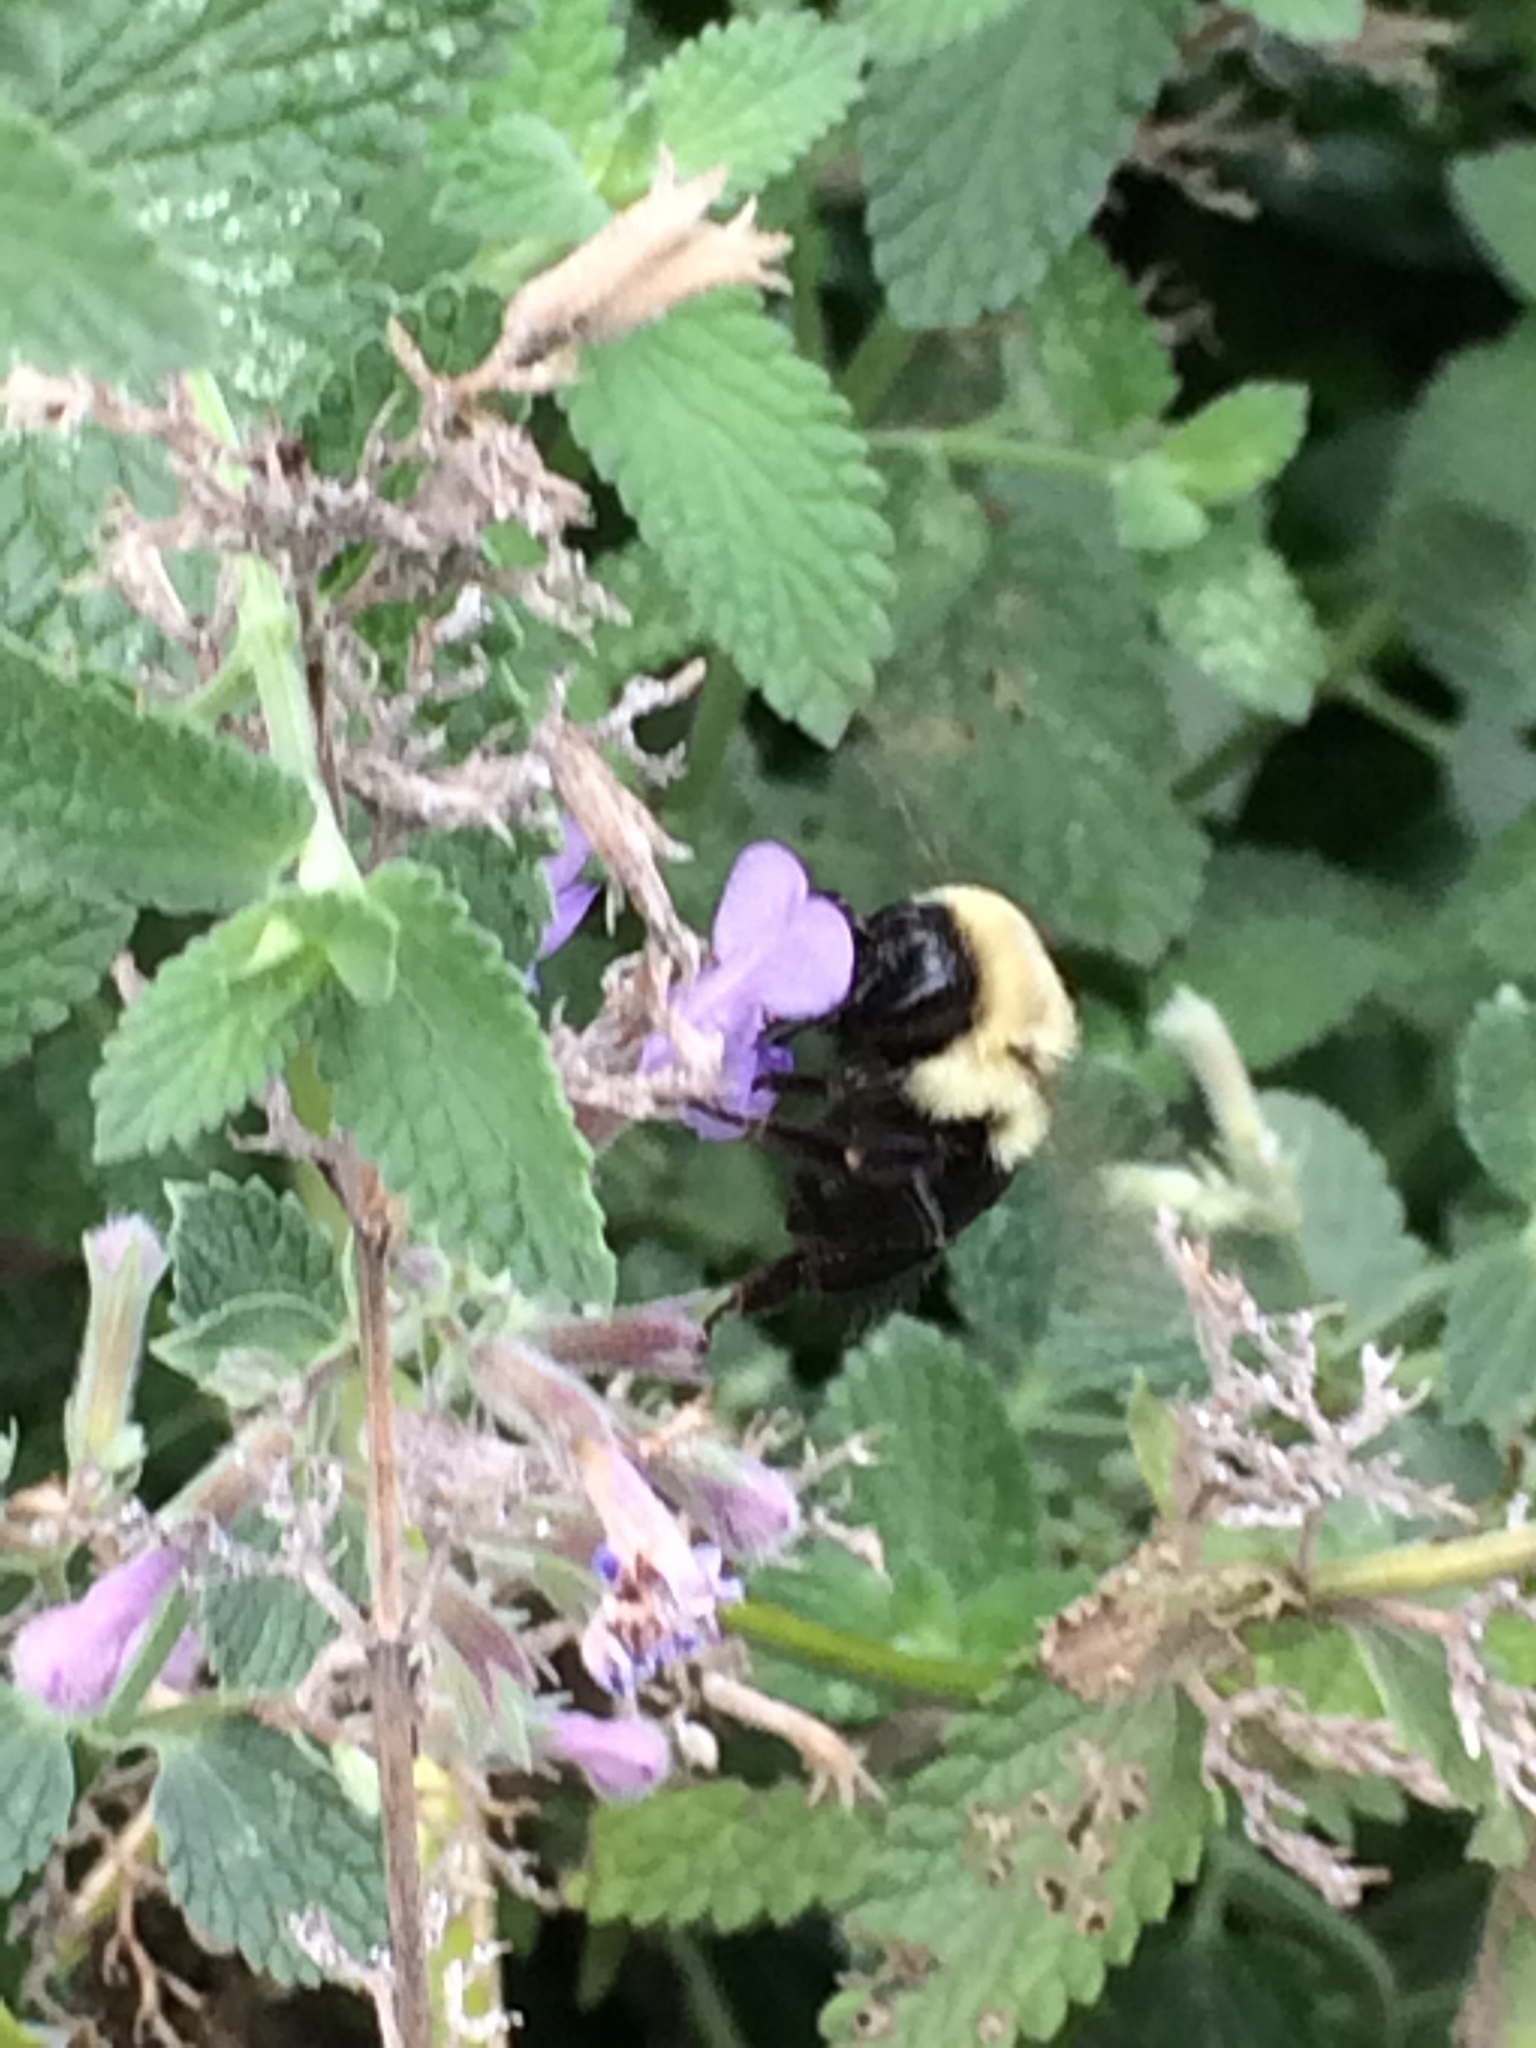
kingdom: Animalia
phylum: Arthropoda
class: Insecta
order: Hymenoptera
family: Apidae
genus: Bombus
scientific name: Bombus impatiens
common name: Common eastern bumble bee
